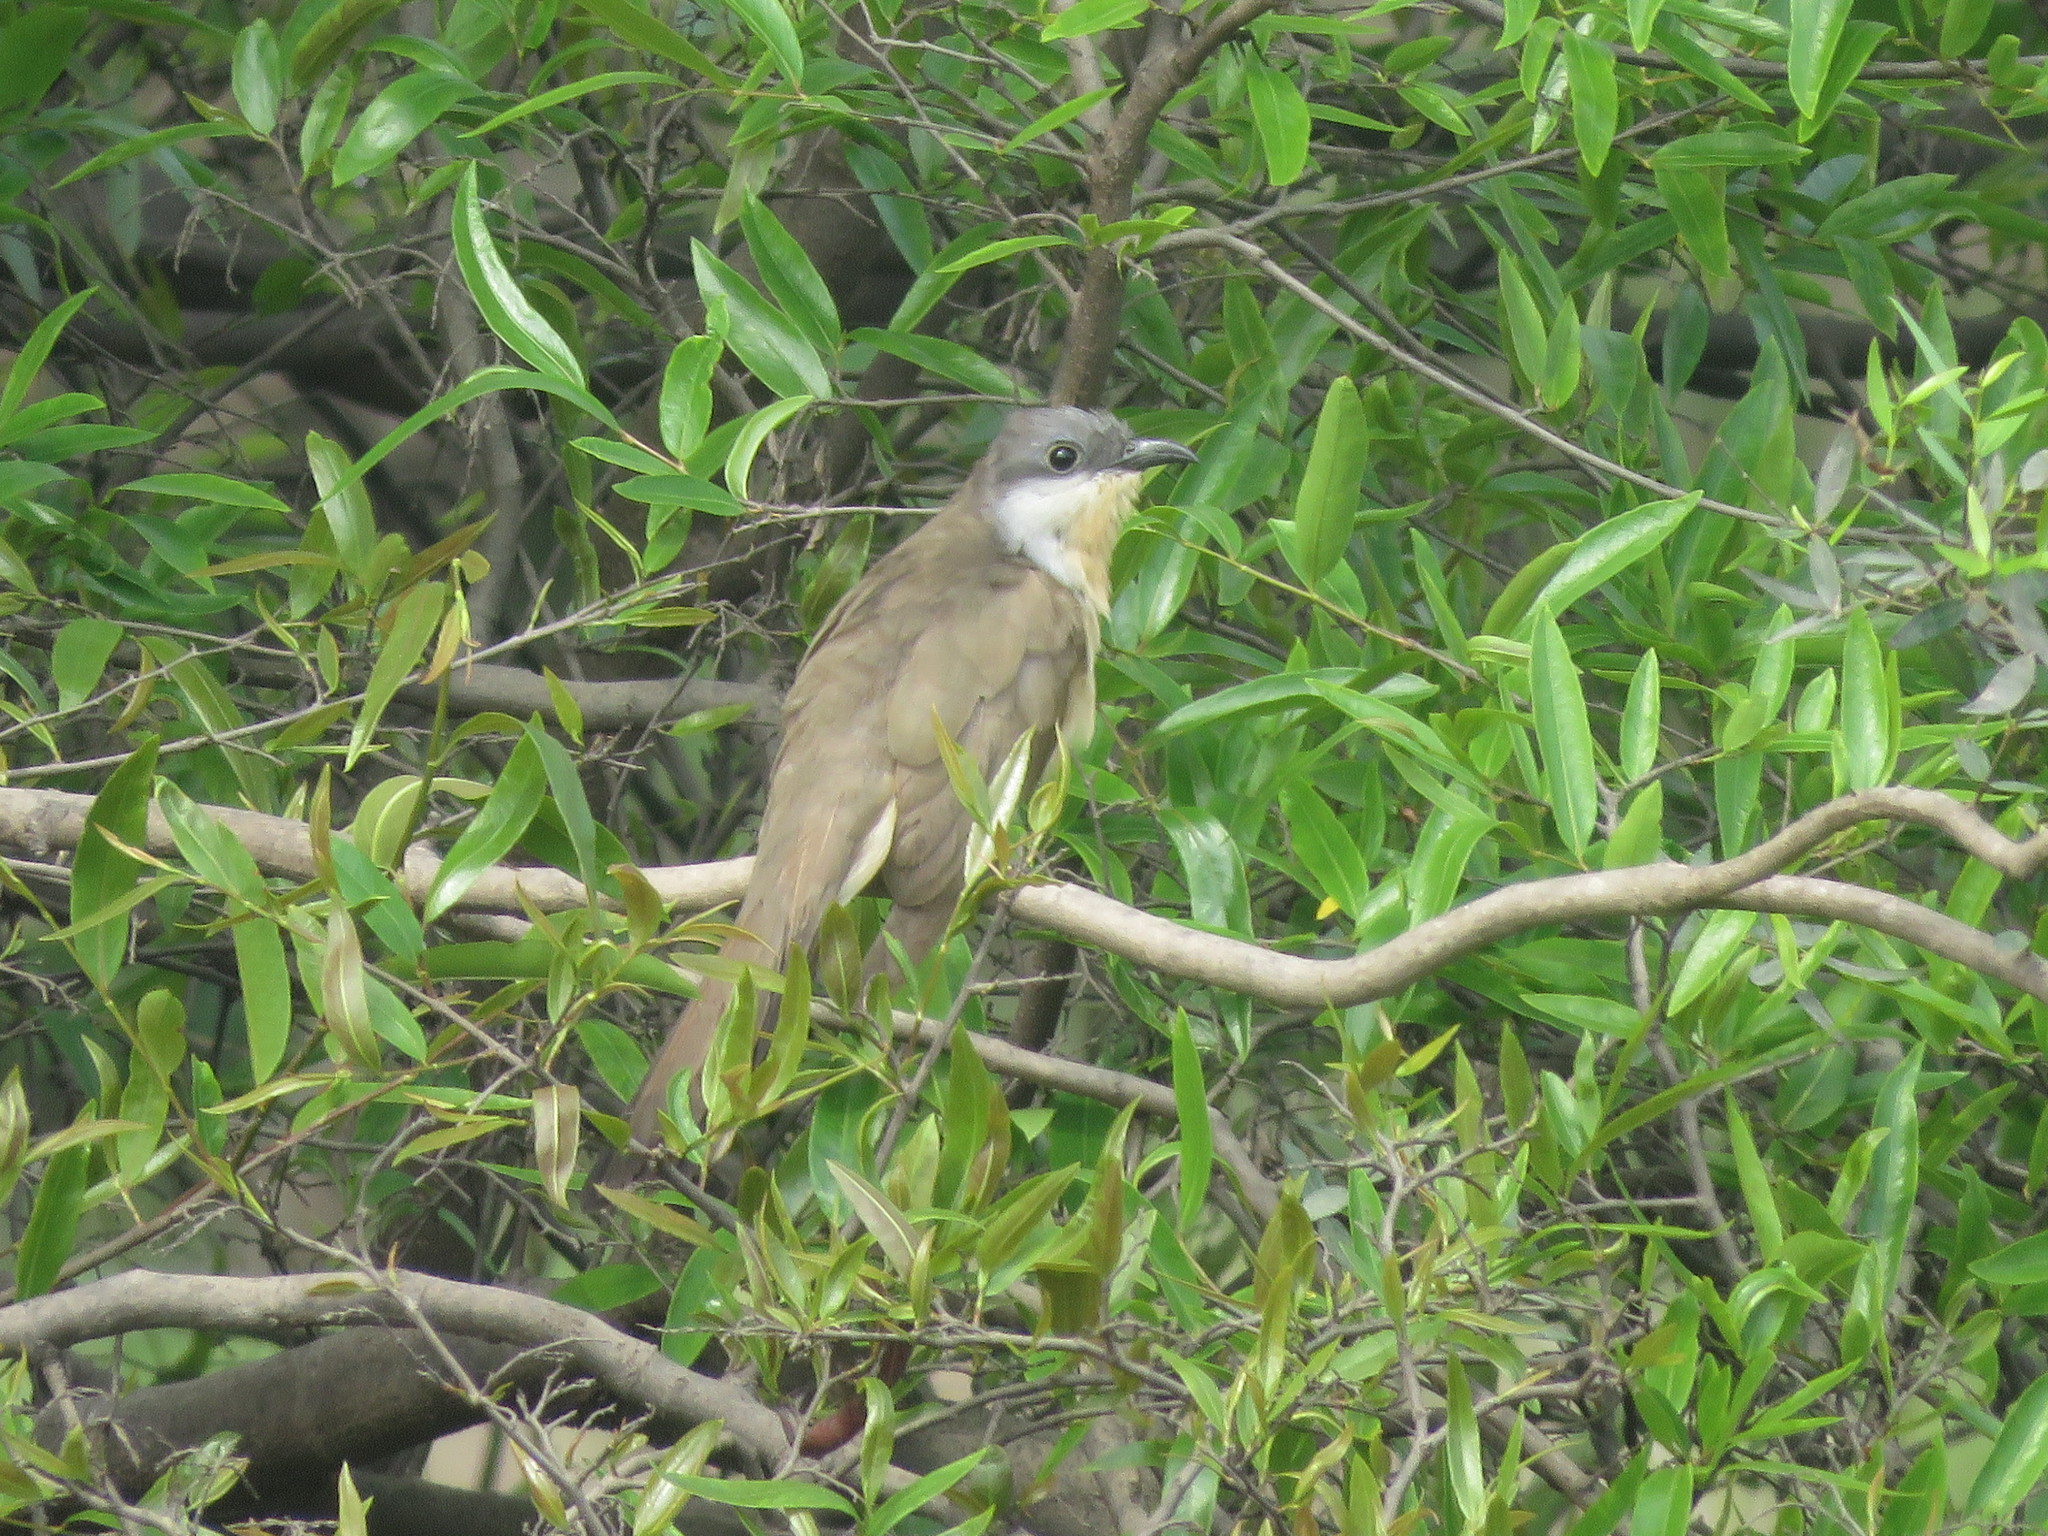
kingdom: Animalia
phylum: Chordata
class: Aves
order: Cuculiformes
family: Cuculidae
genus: Coccyzus
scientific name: Coccyzus melacoryphus
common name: Dark-billed cuckoo
